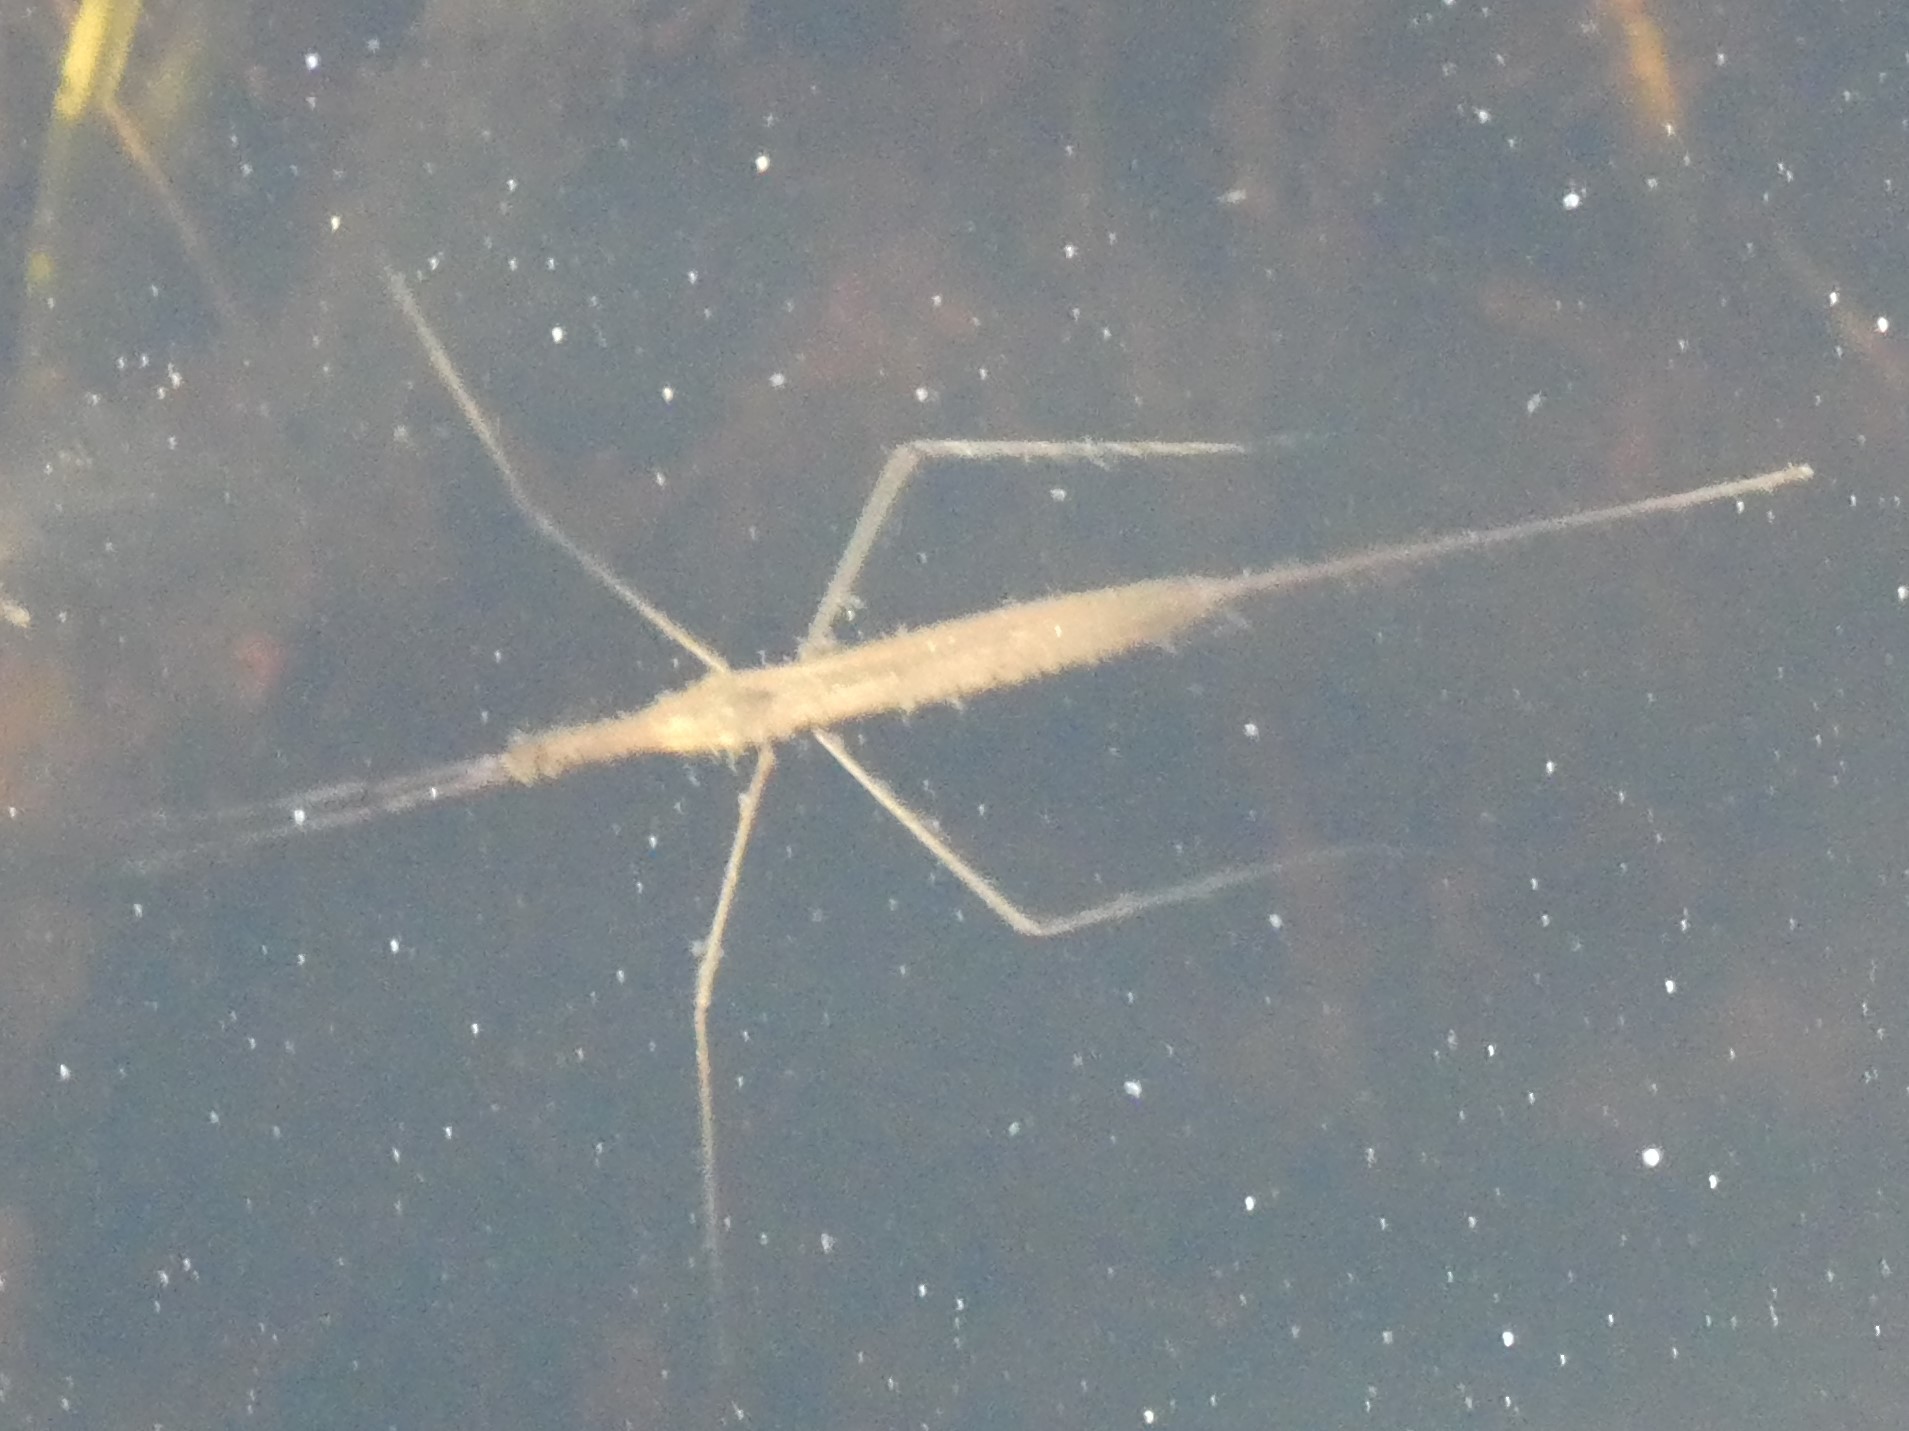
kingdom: Animalia
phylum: Arthropoda
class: Insecta
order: Hemiptera
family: Nepidae
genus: Ranatra
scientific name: Ranatra
